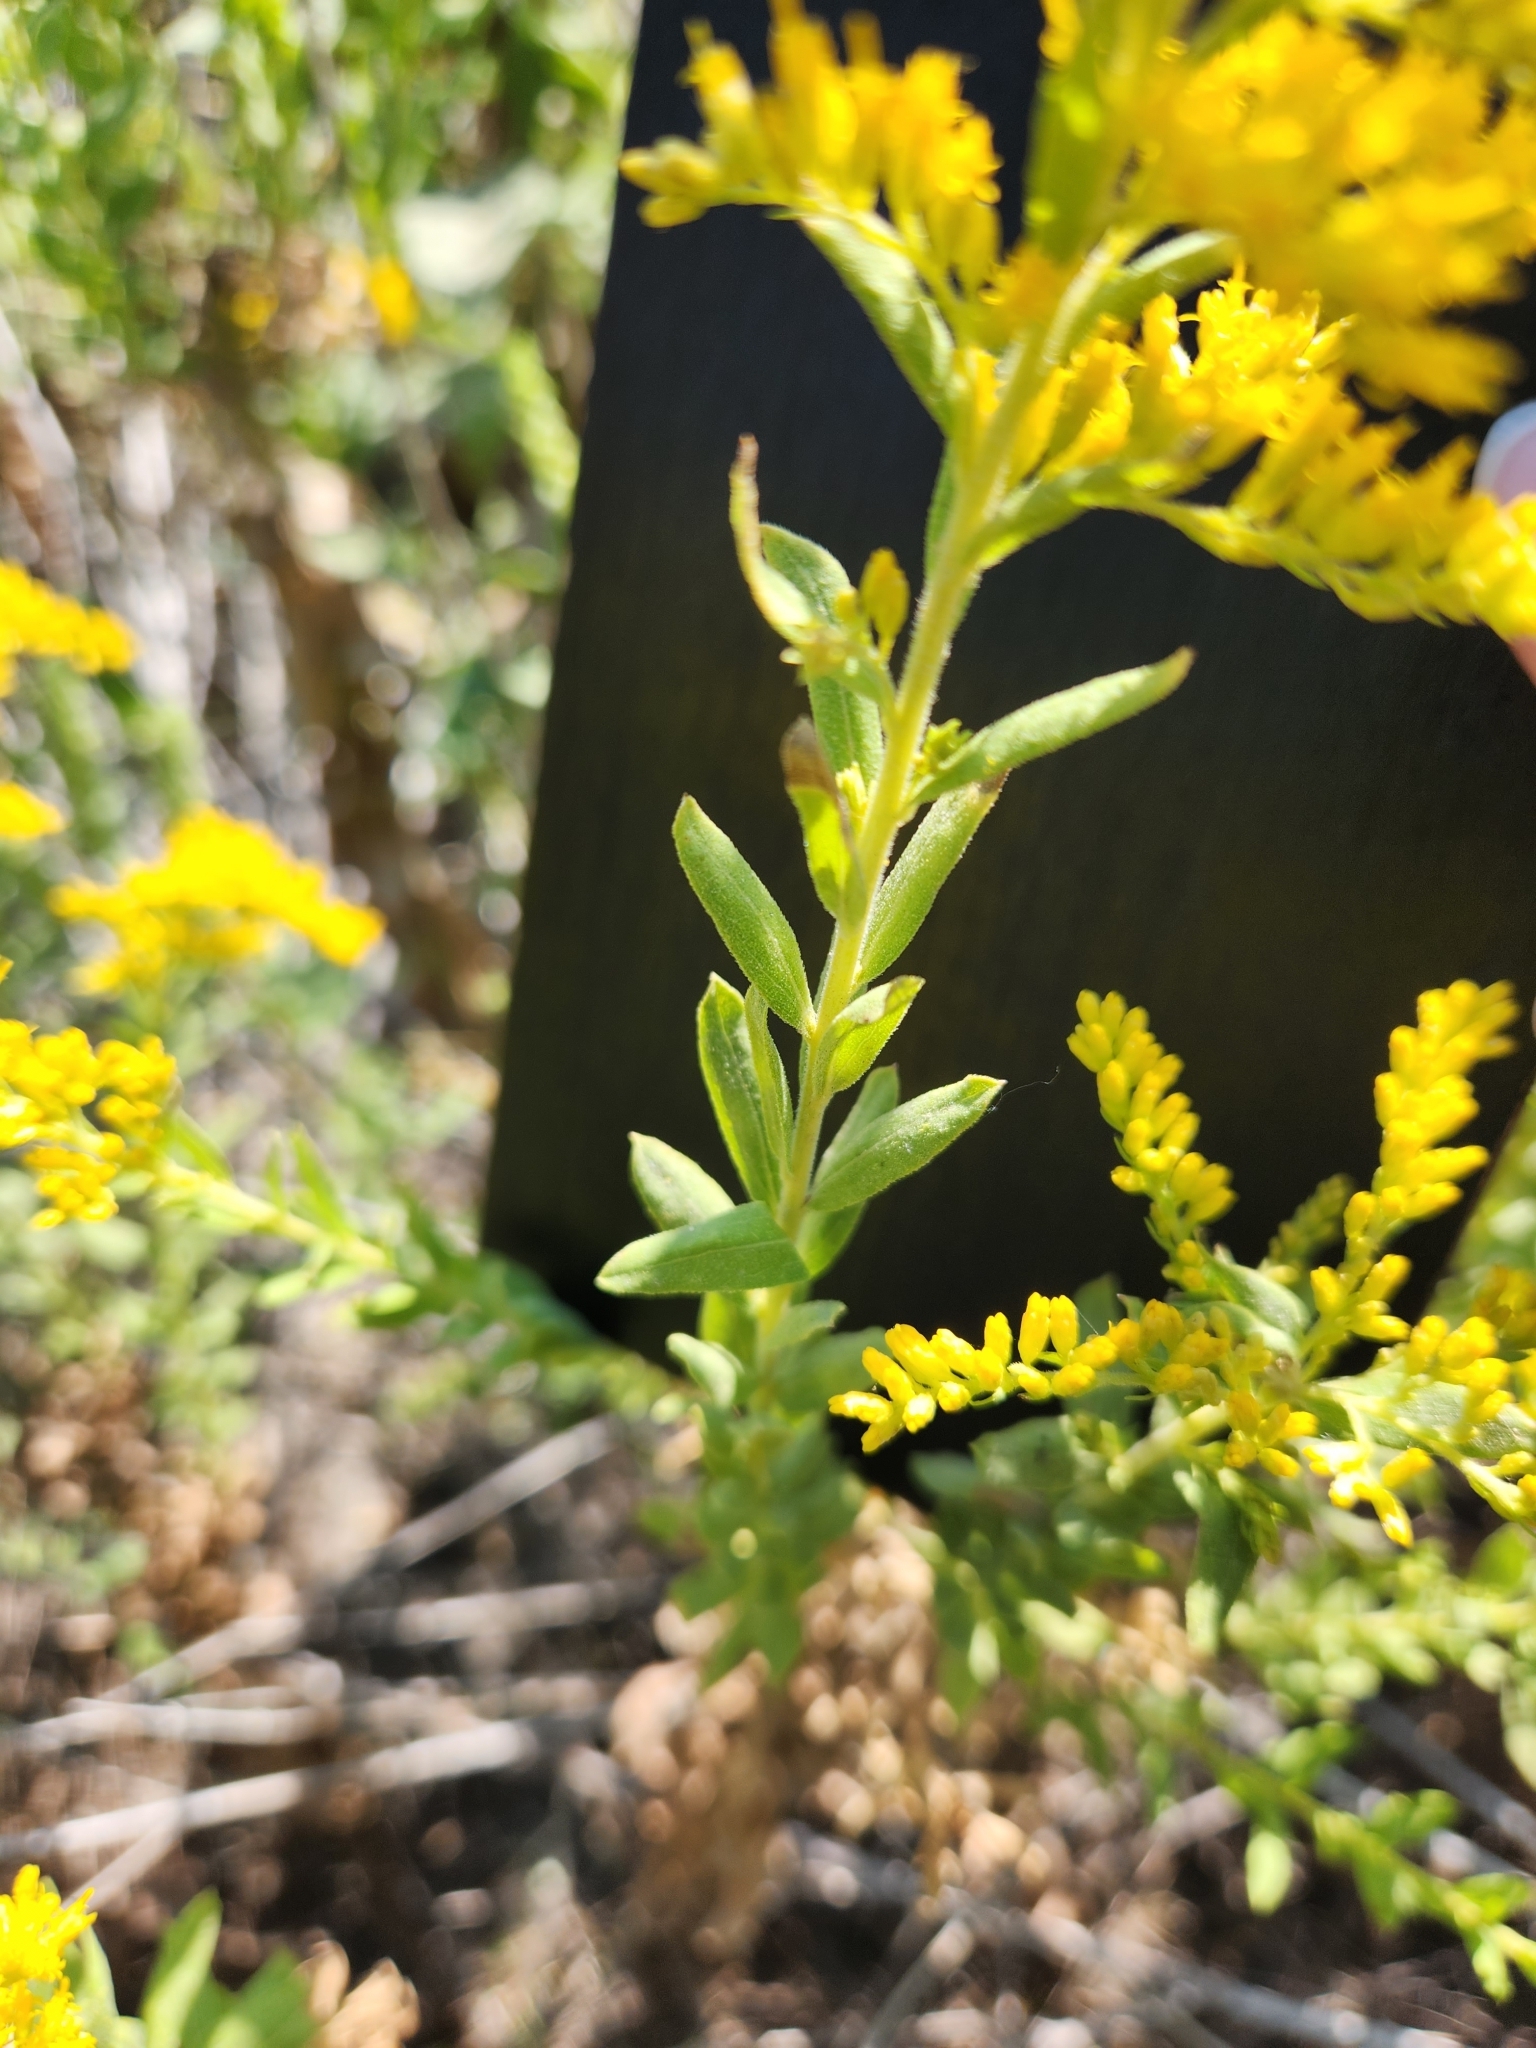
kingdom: Plantae
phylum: Tracheophyta
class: Magnoliopsida
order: Asterales
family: Asteraceae
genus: Solidago
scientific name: Solidago altissima
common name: Late goldenrod
